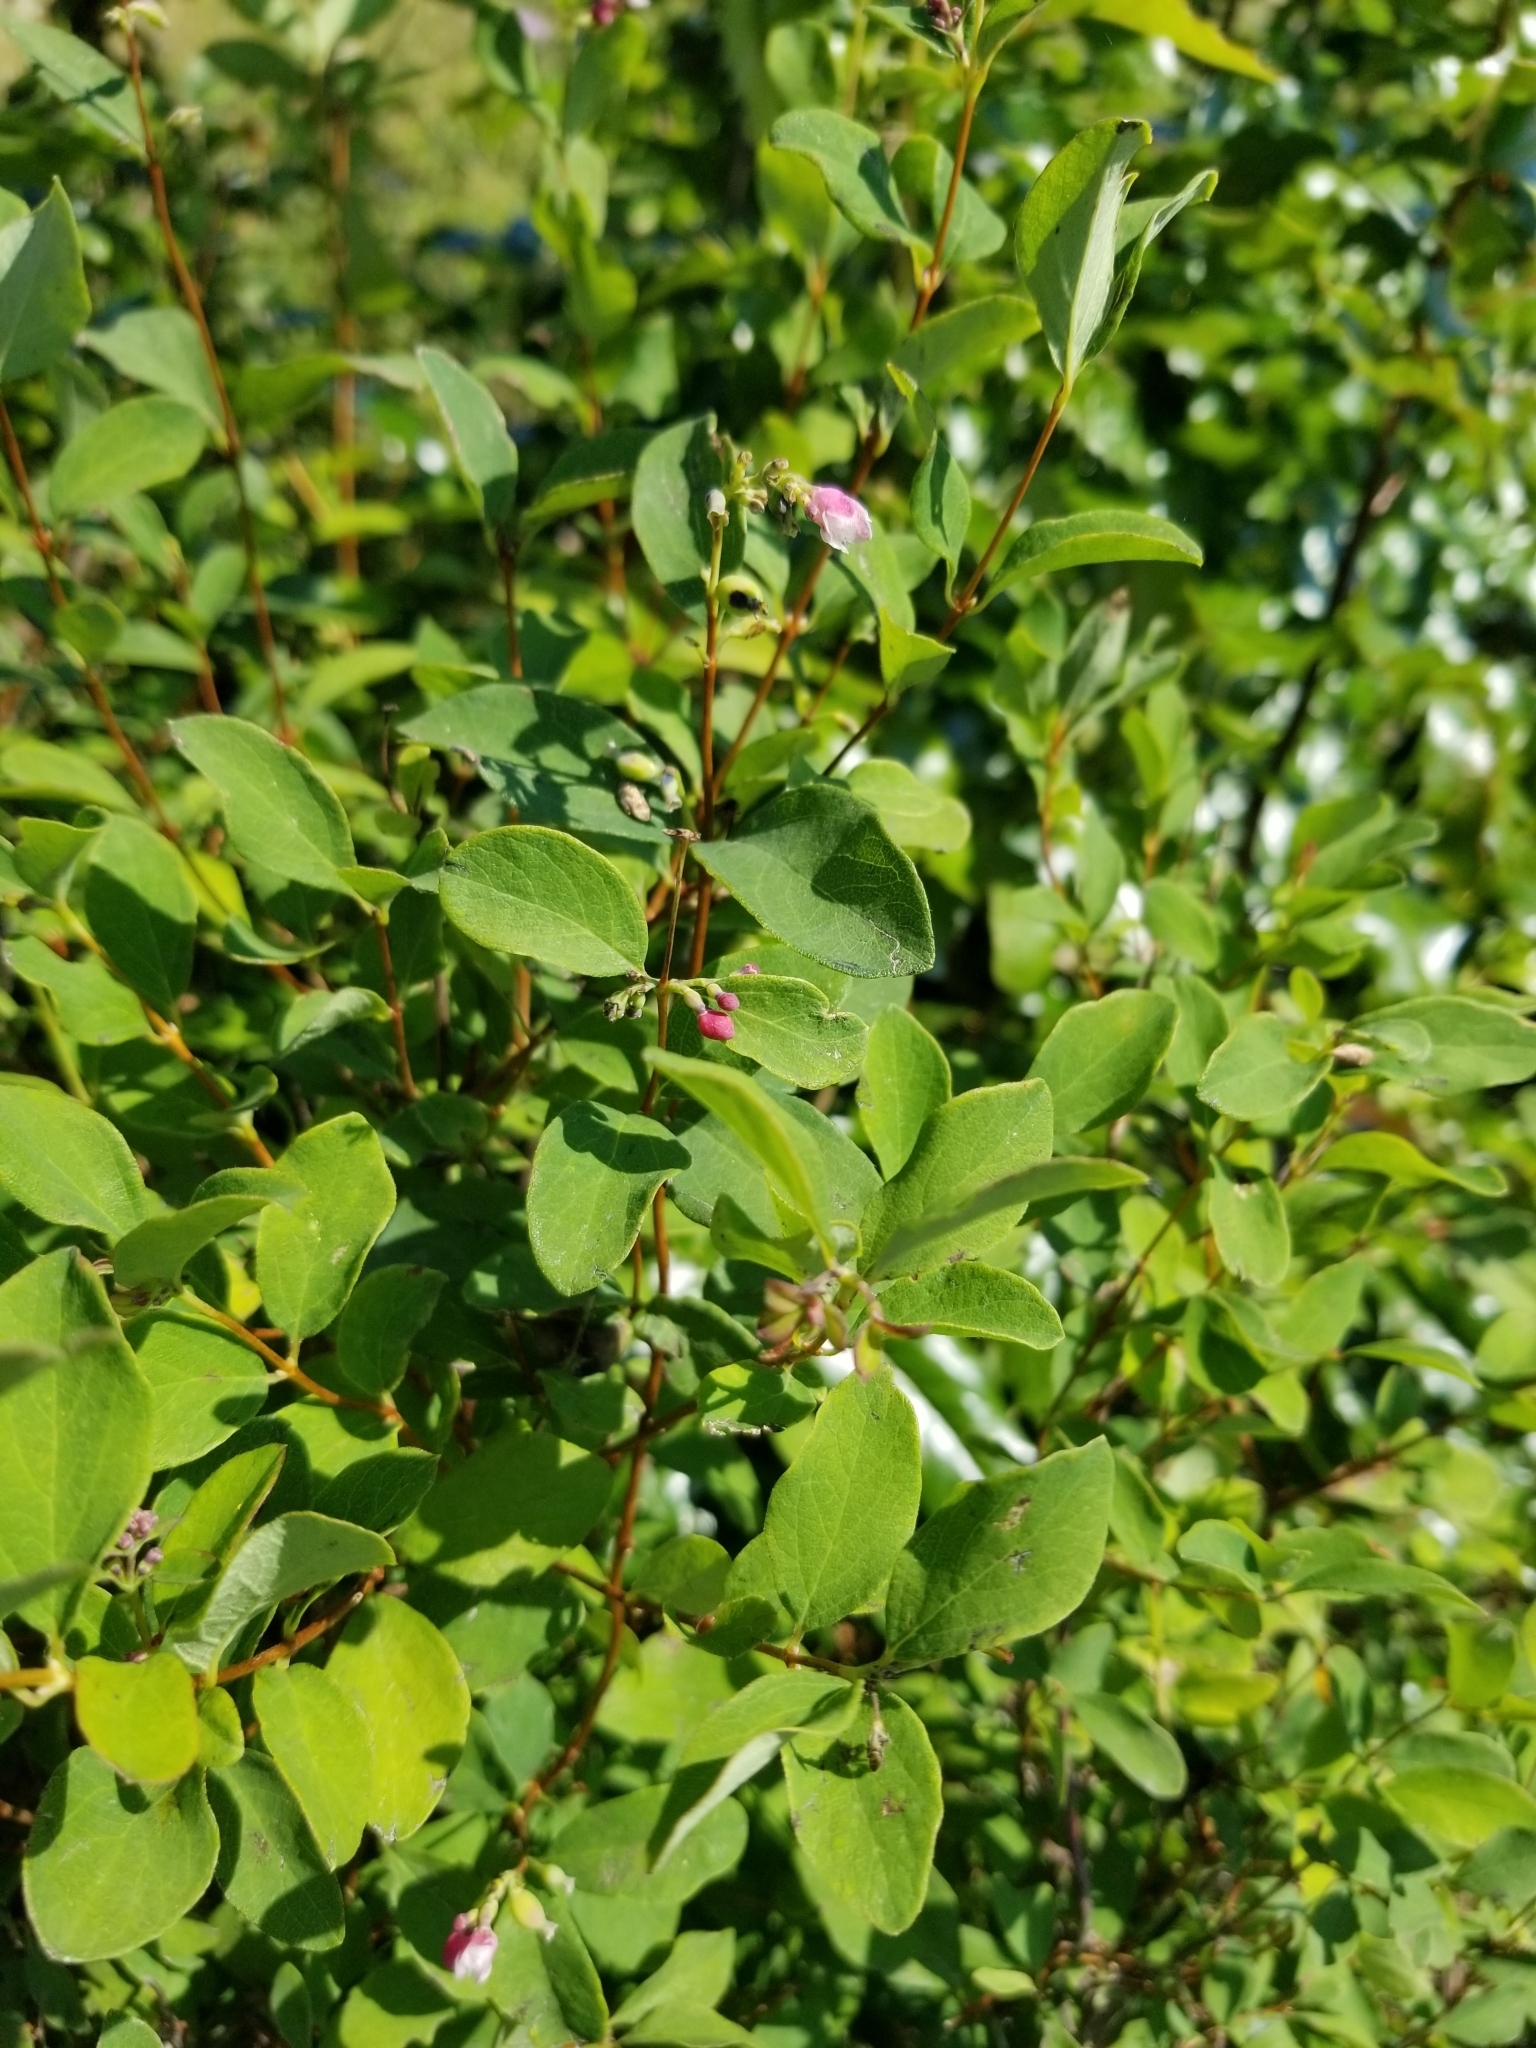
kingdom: Plantae
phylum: Tracheophyta
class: Magnoliopsida
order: Dipsacales
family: Caprifoliaceae
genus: Symphoricarpos
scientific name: Symphoricarpos albus
